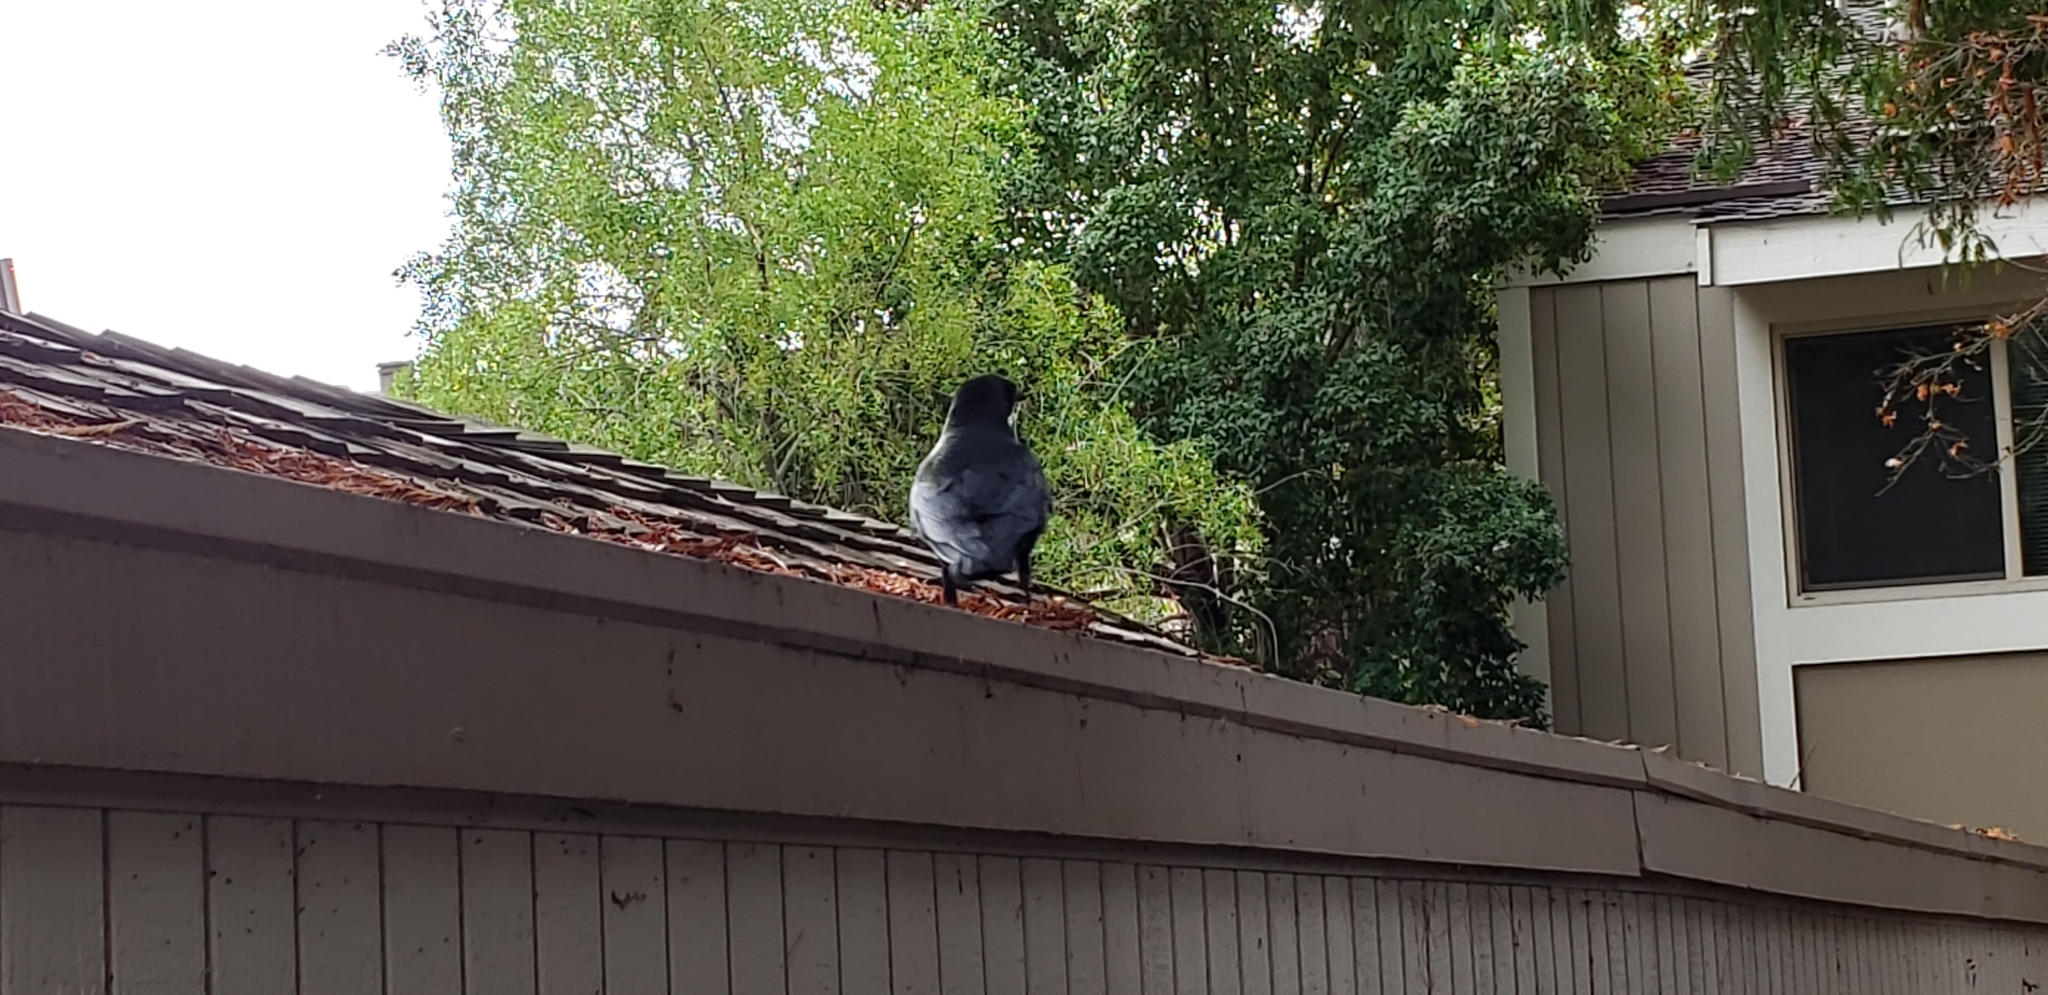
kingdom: Animalia
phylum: Chordata
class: Aves
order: Passeriformes
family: Corvidae
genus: Corvus
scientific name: Corvus brachyrhynchos
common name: American crow
